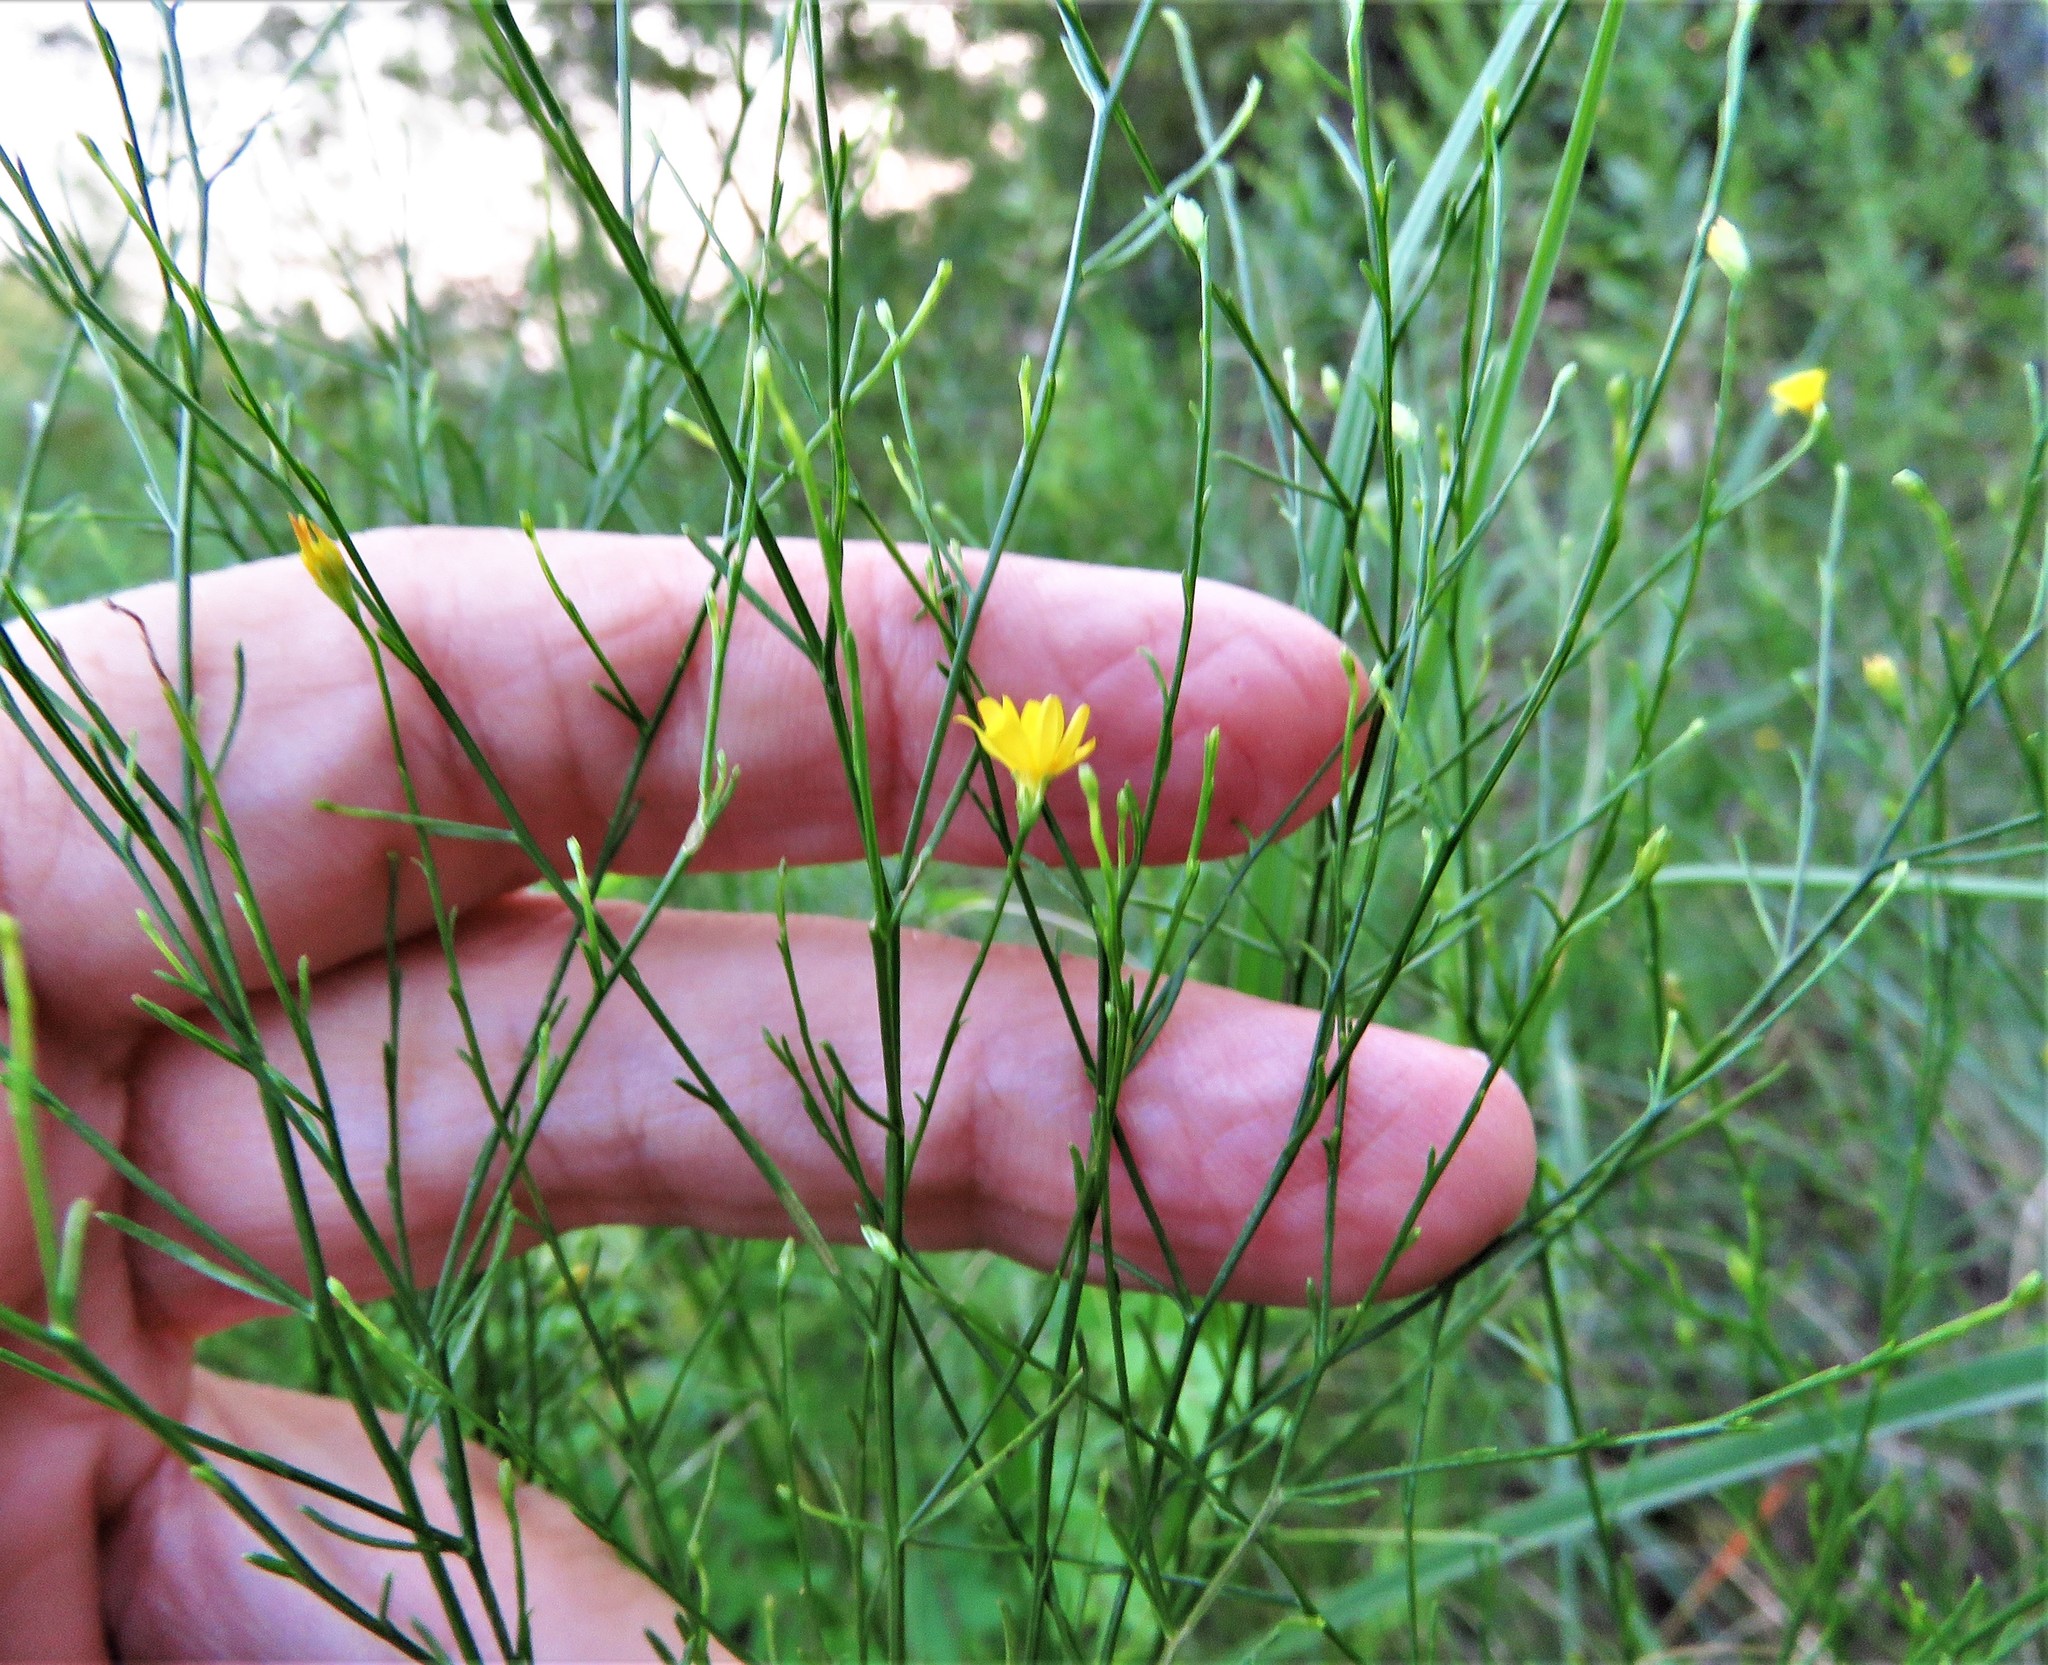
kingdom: Plantae
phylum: Tracheophyta
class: Magnoliopsida
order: Asterales
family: Asteraceae
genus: Gutierrezia
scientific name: Gutierrezia texana
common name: Texas snakeweed
